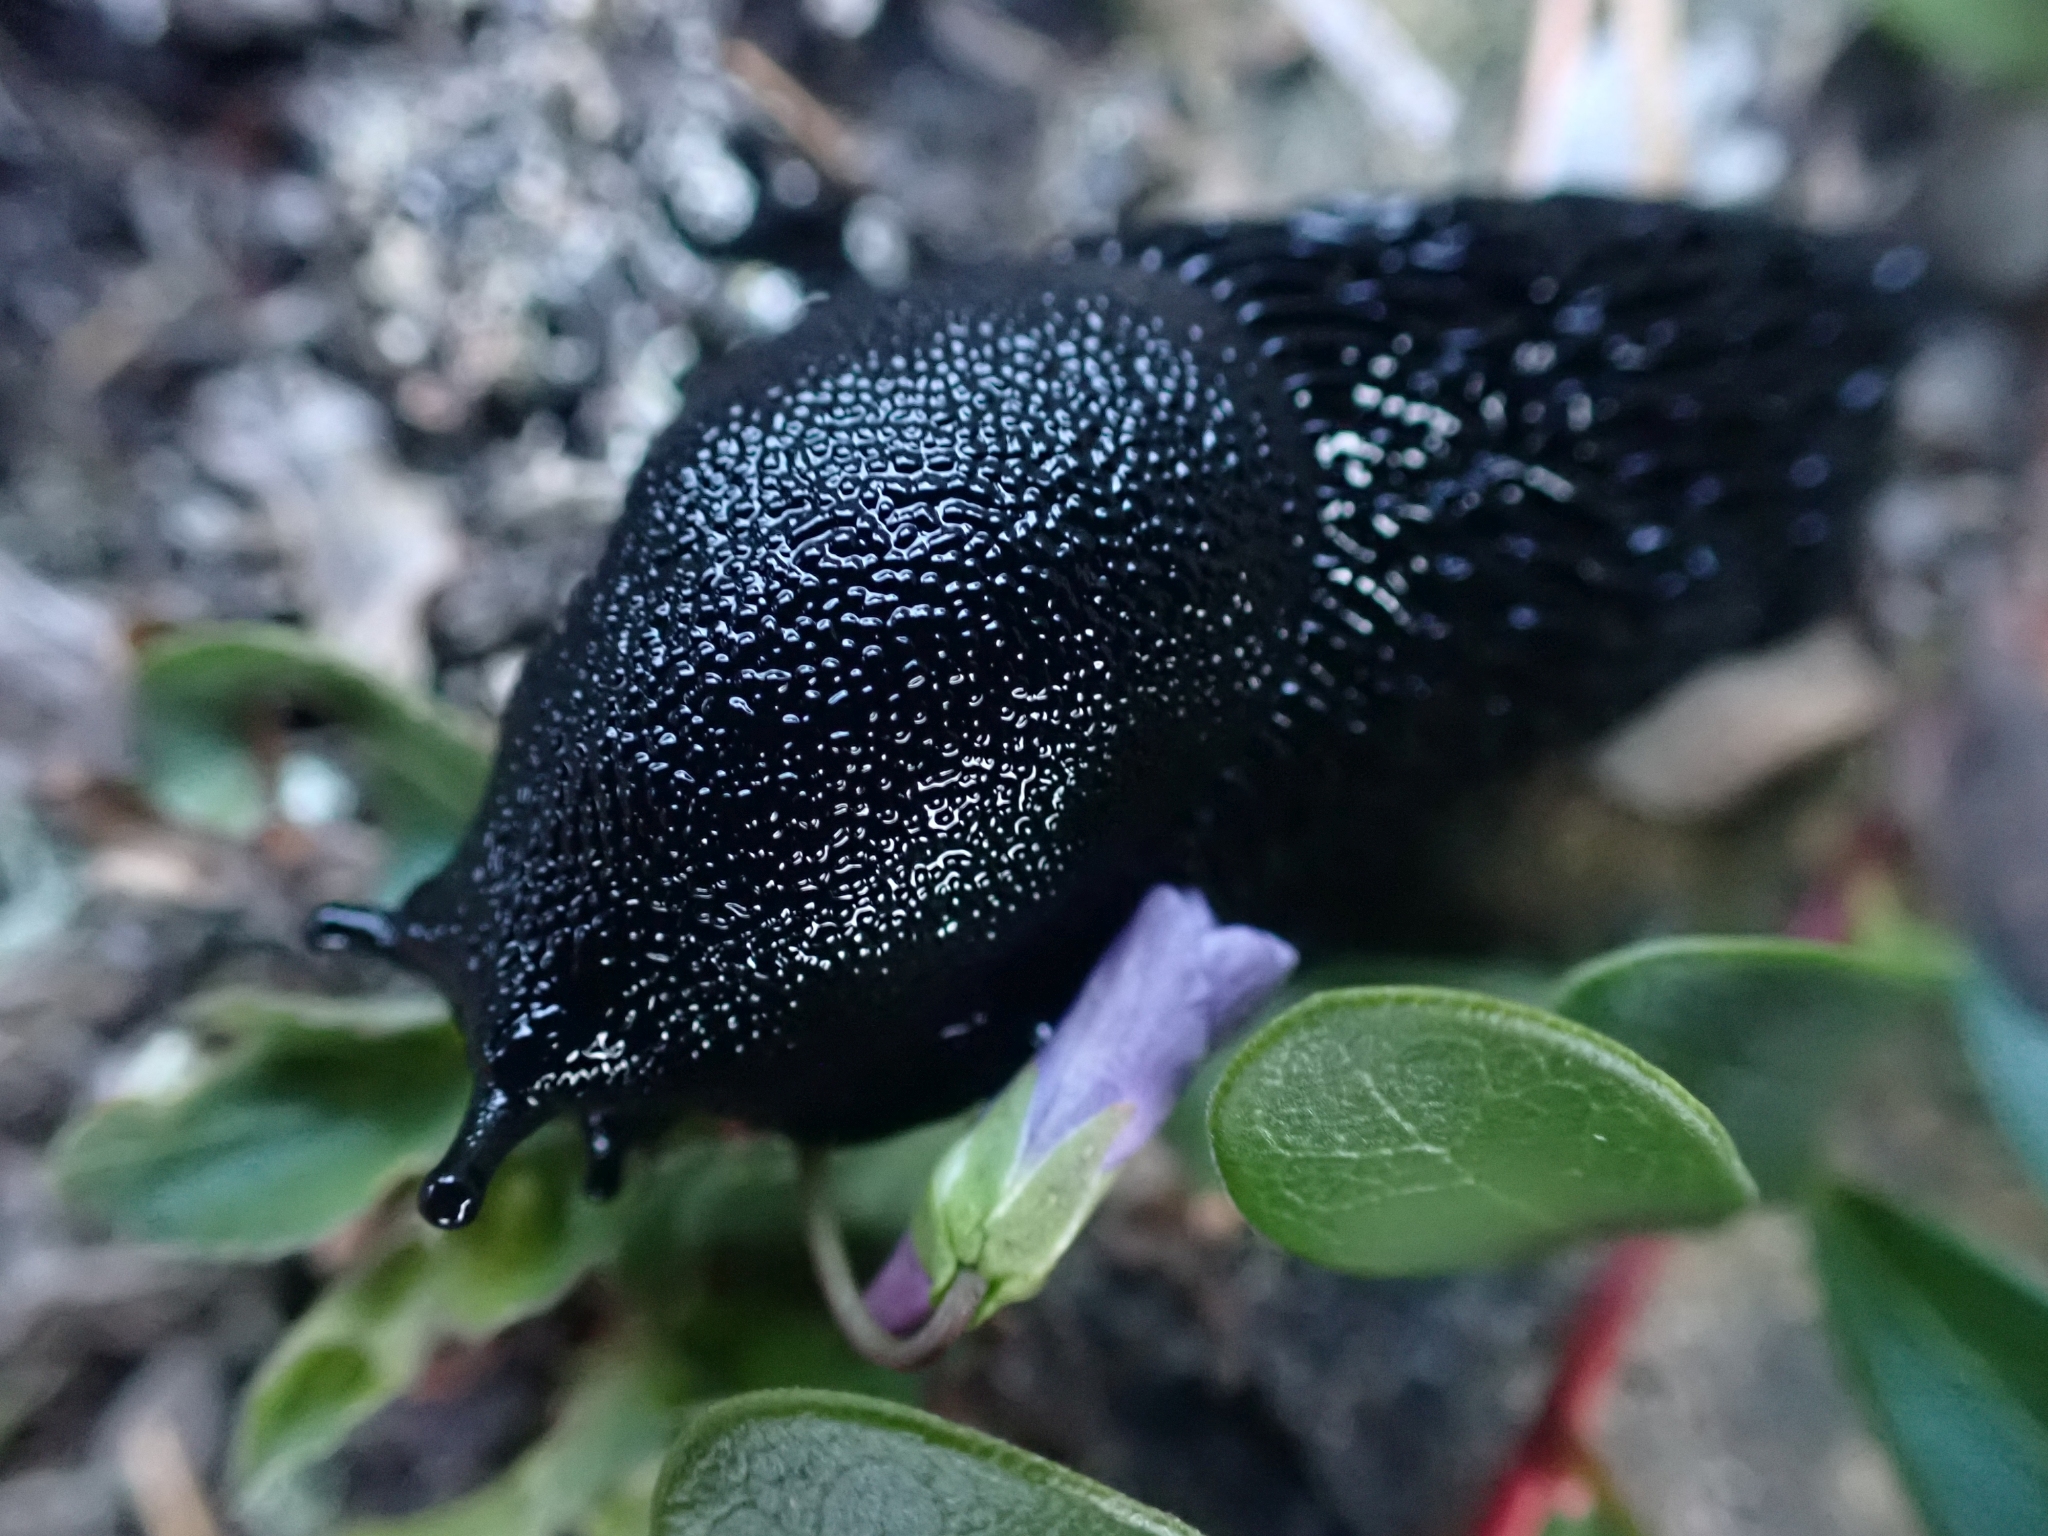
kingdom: Animalia
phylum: Mollusca
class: Gastropoda
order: Stylommatophora
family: Arionidae
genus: Arion
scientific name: Arion
